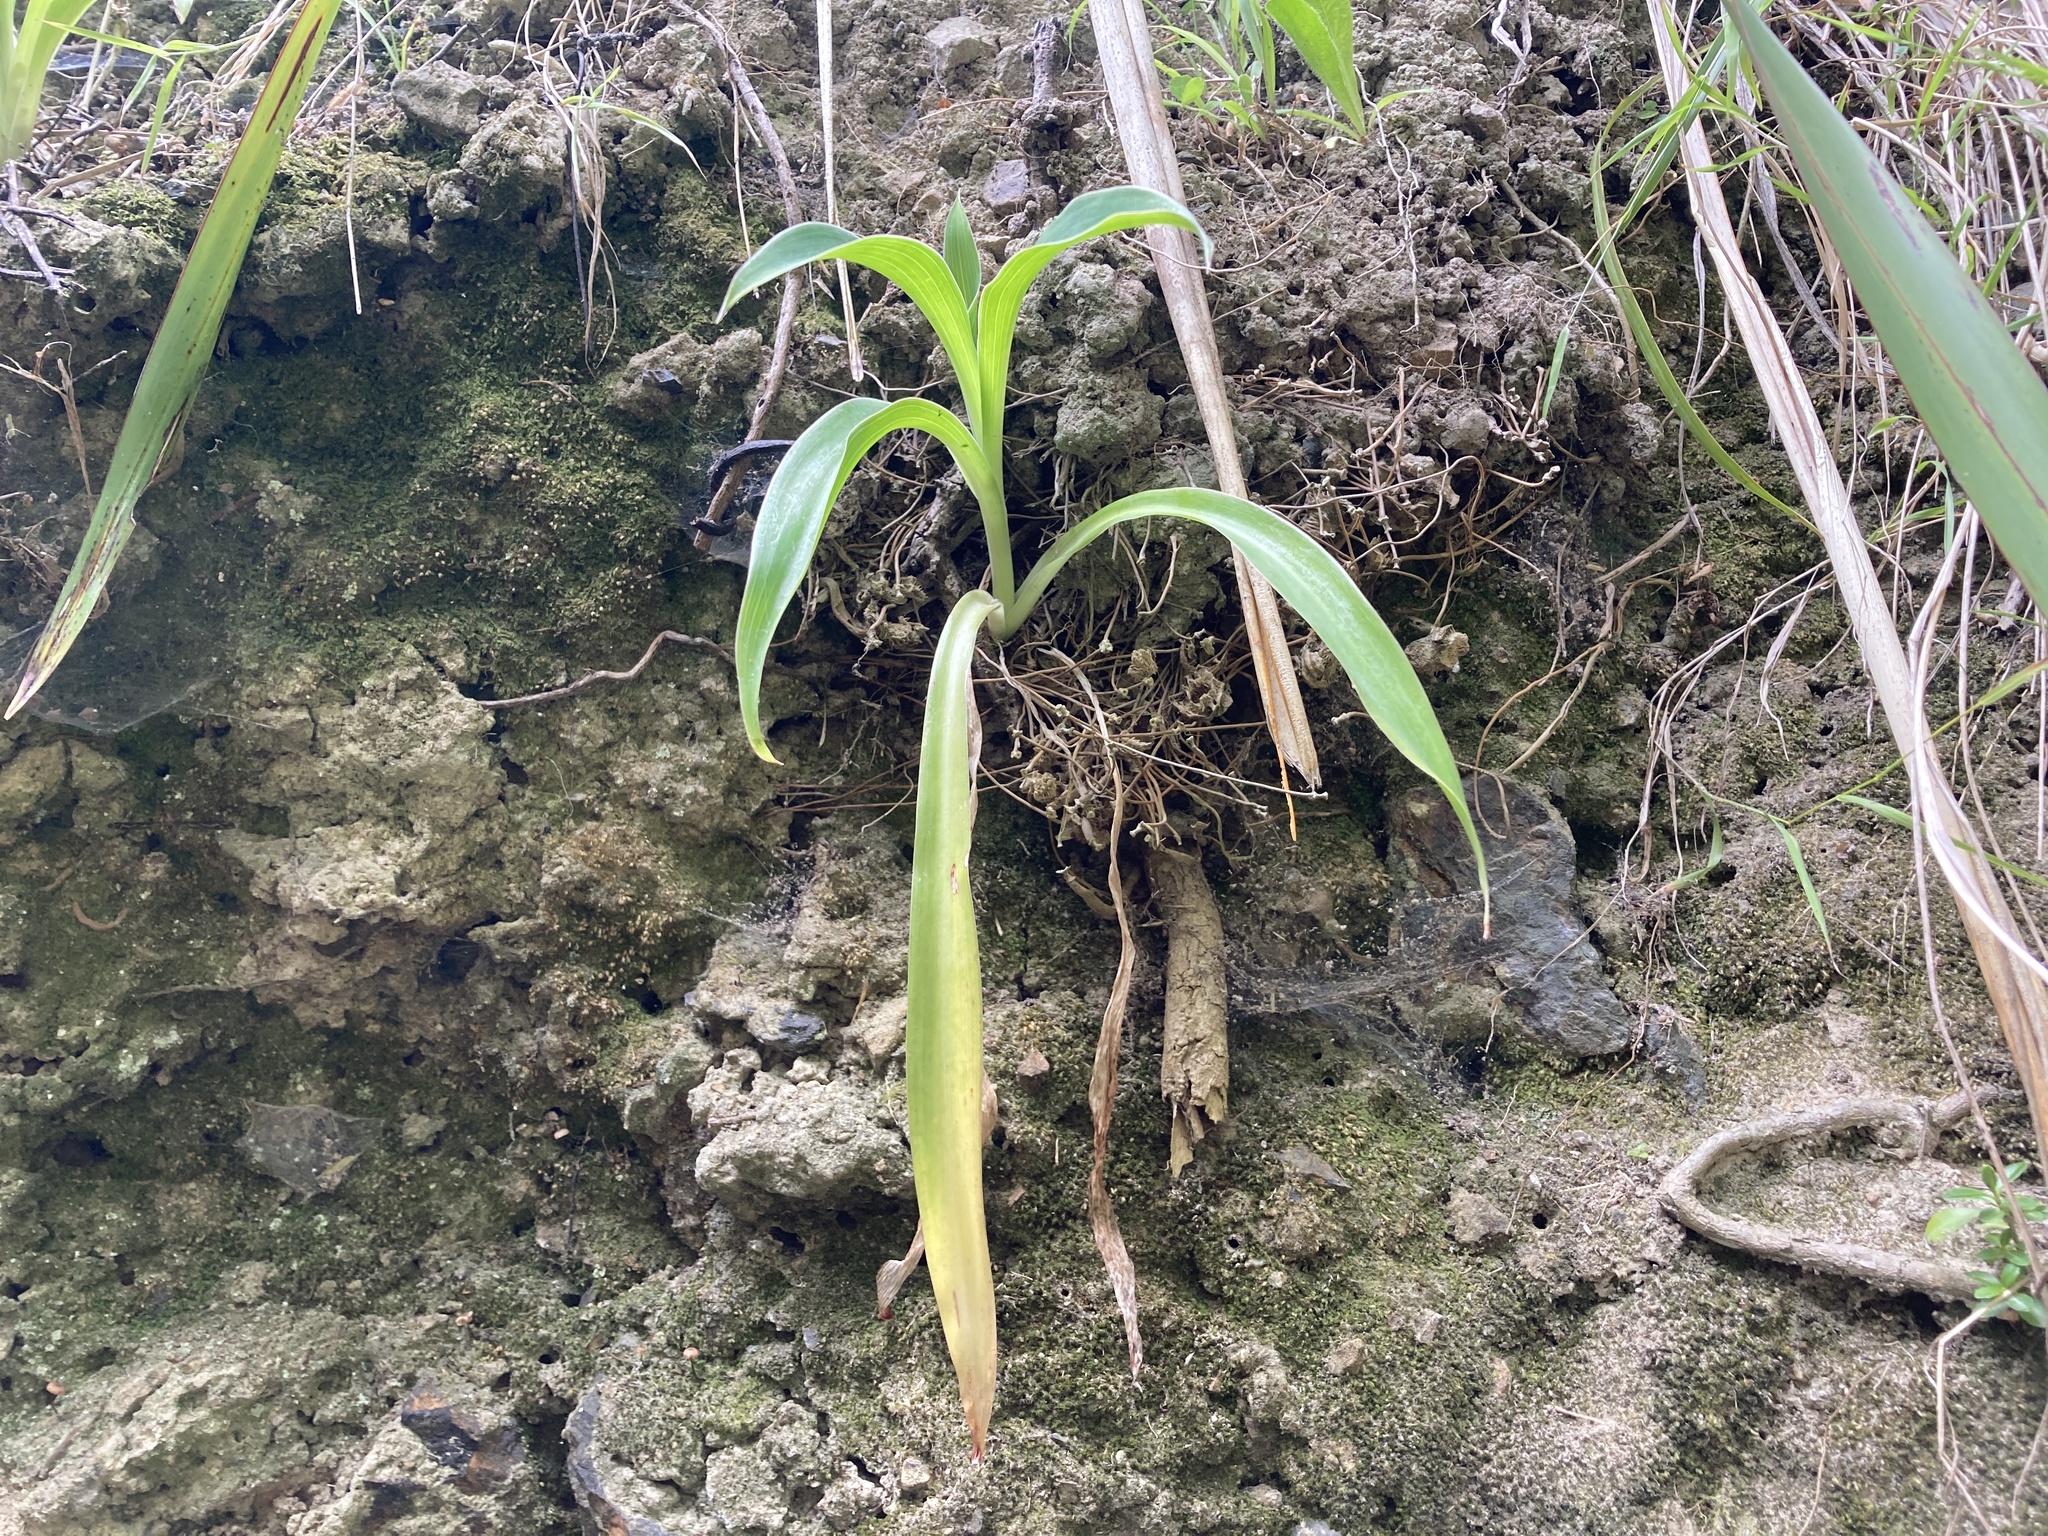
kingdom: Plantae
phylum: Tracheophyta
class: Liliopsida
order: Asparagales
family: Asparagaceae
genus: Arthropodium
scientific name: Arthropodium cirratum
